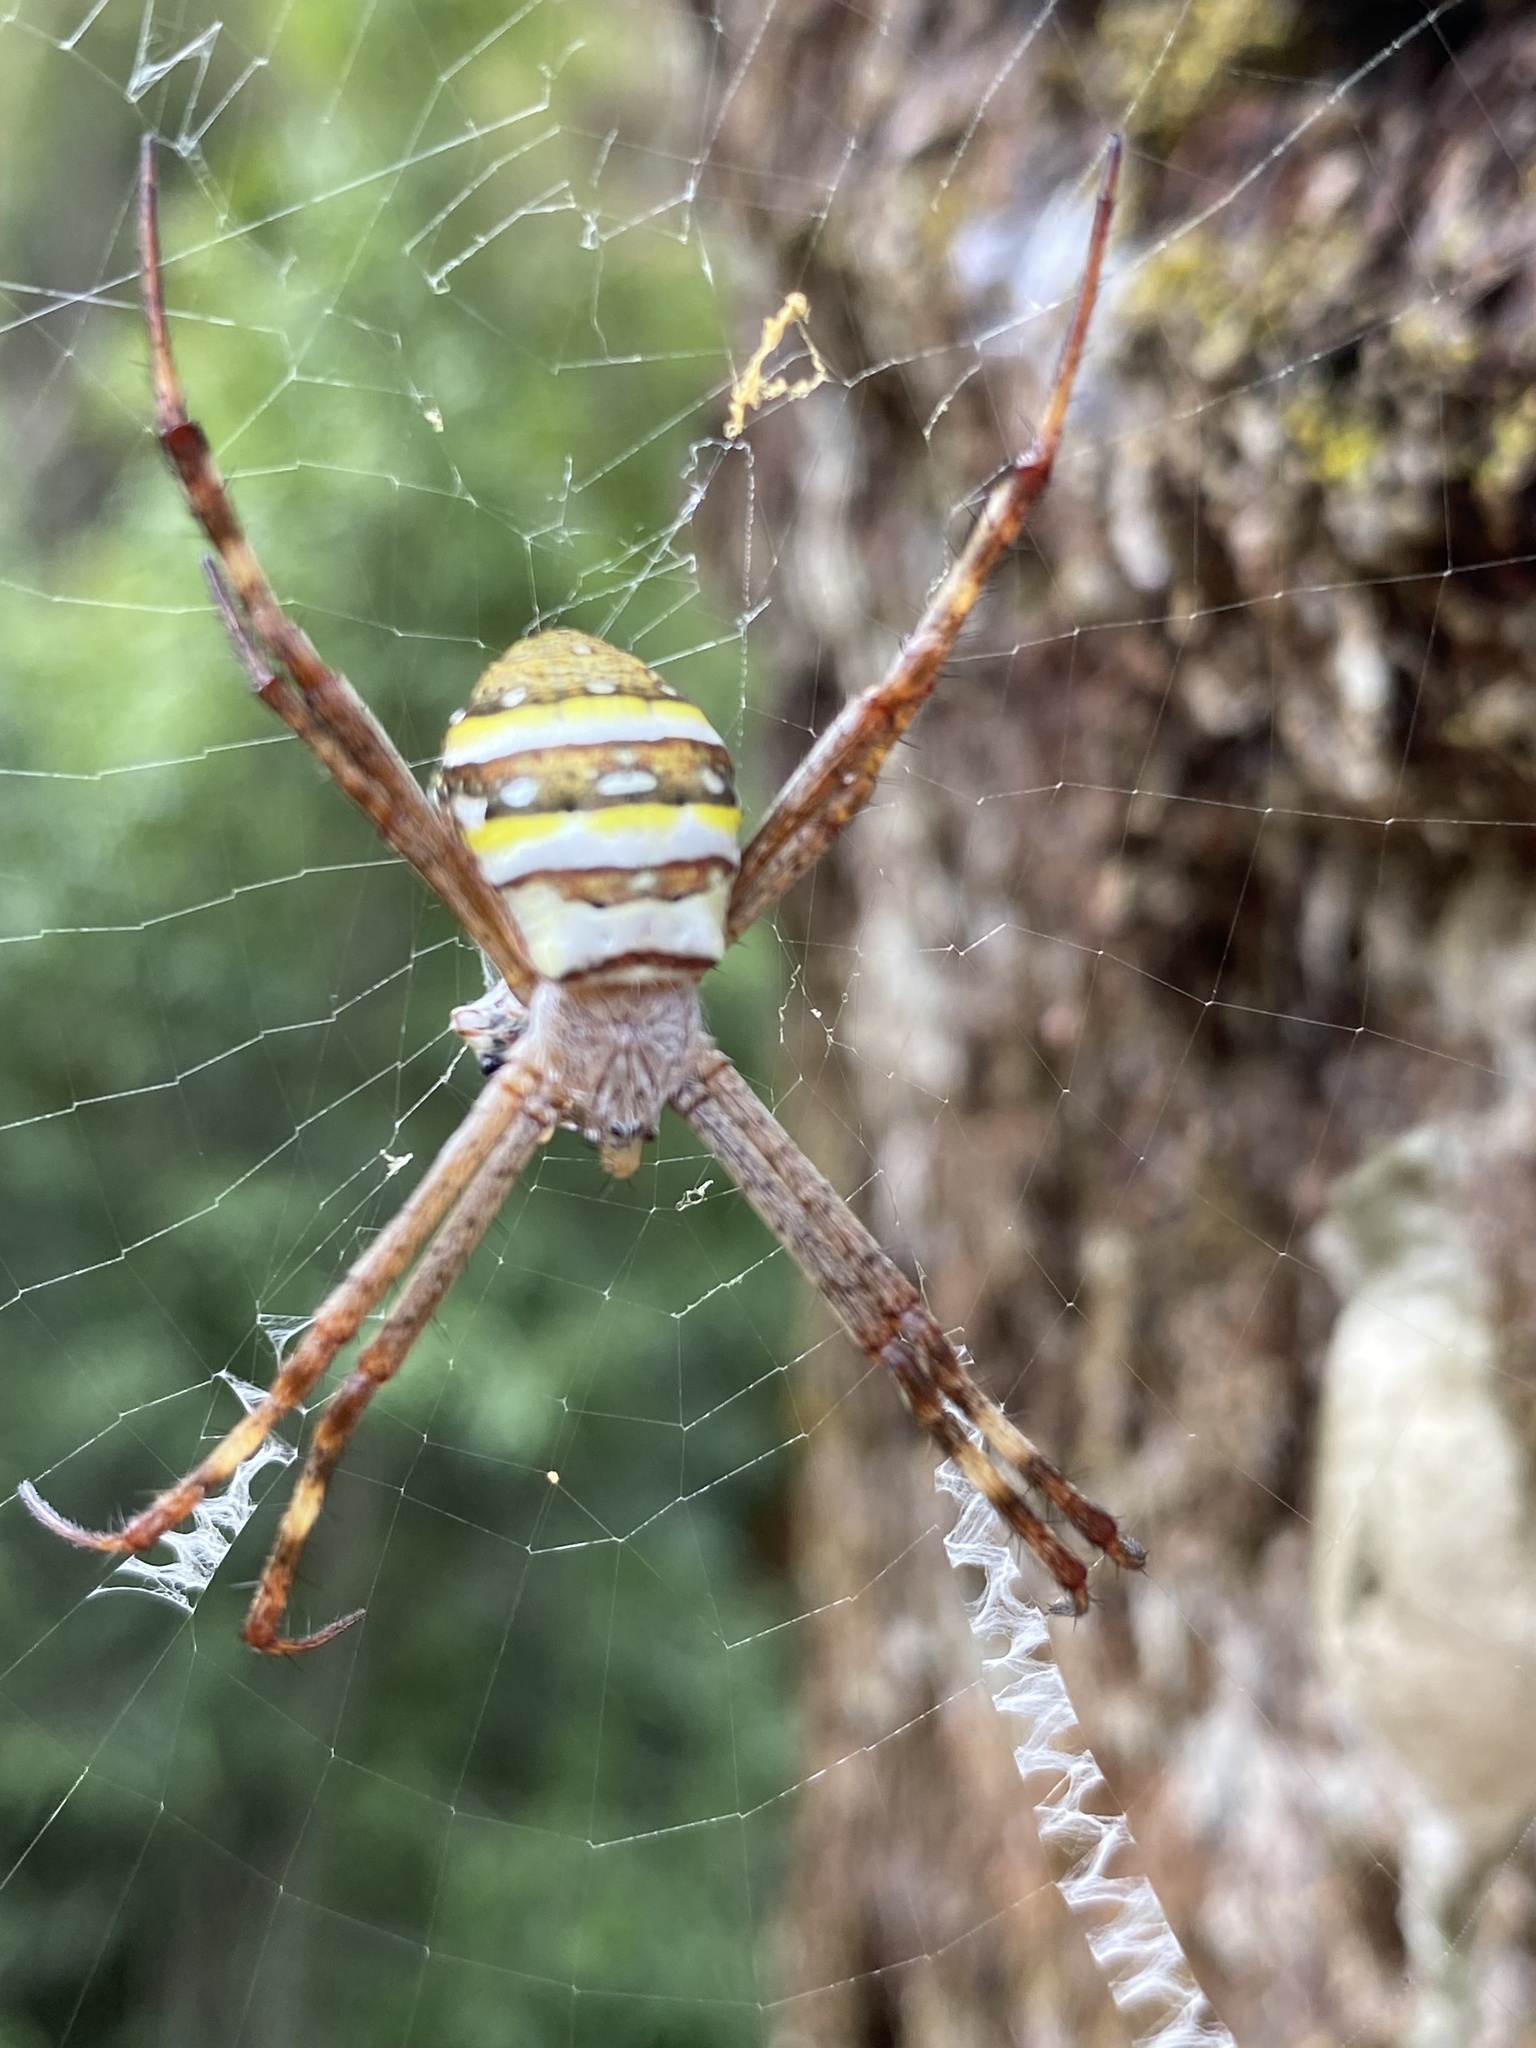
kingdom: Animalia
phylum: Arthropoda
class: Arachnida
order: Araneae
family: Araneidae
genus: Argiope
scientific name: Argiope keyserlingi
